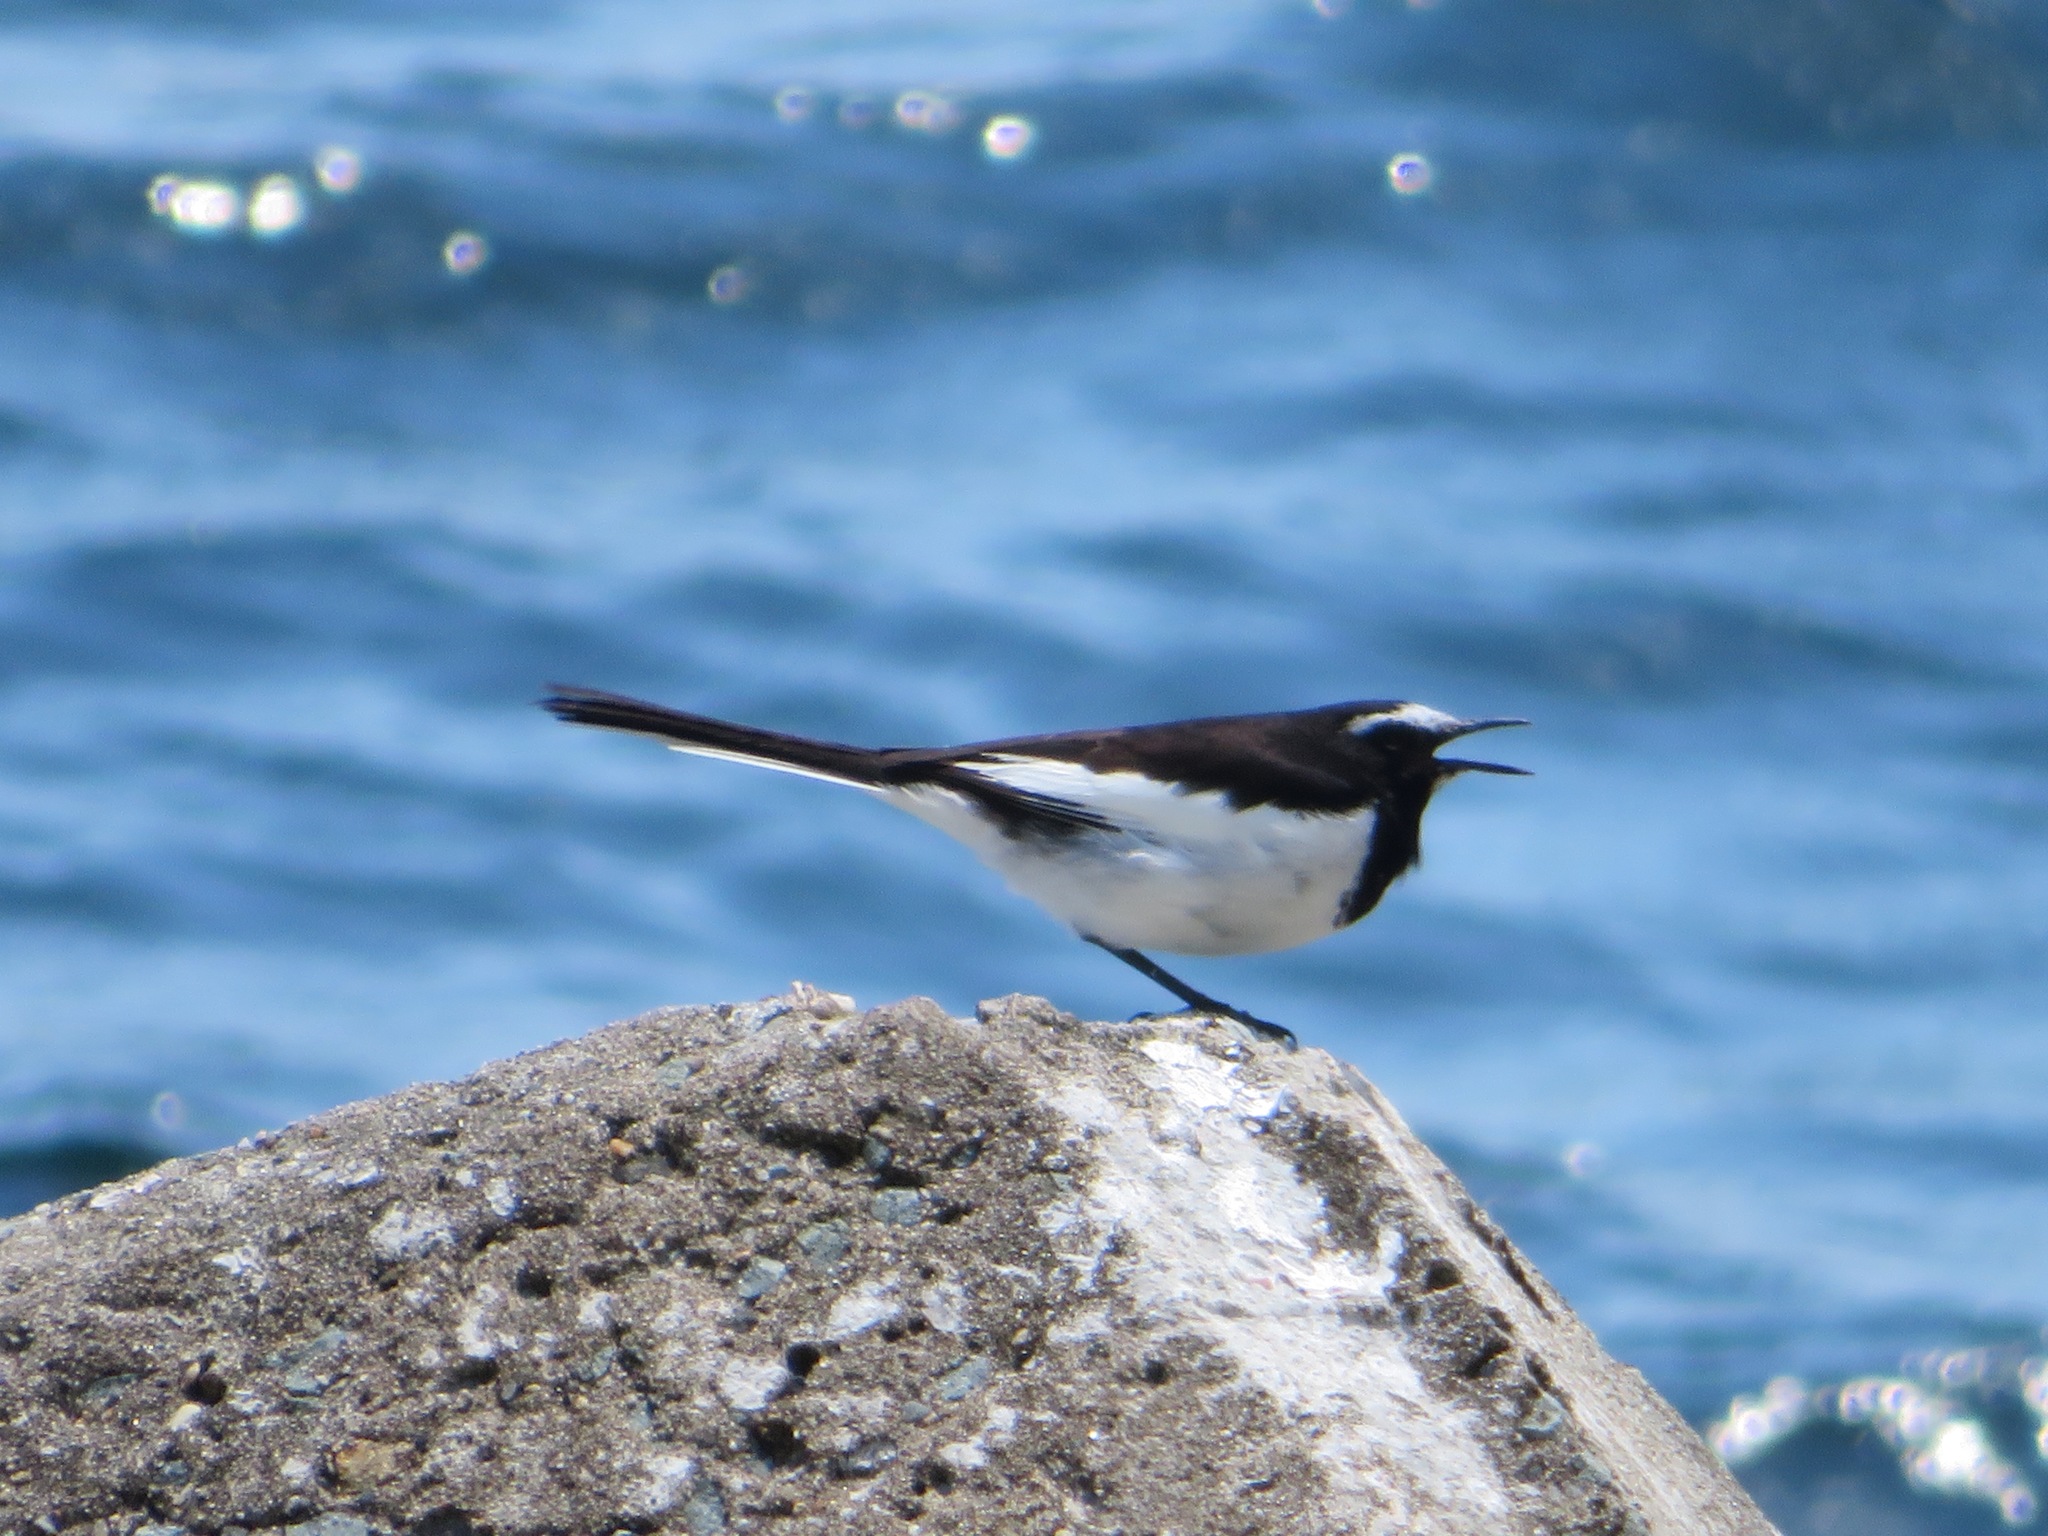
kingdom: Animalia
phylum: Chordata
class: Aves
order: Passeriformes
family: Motacillidae
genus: Motacilla
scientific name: Motacilla grandis
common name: Japanese wagtail
